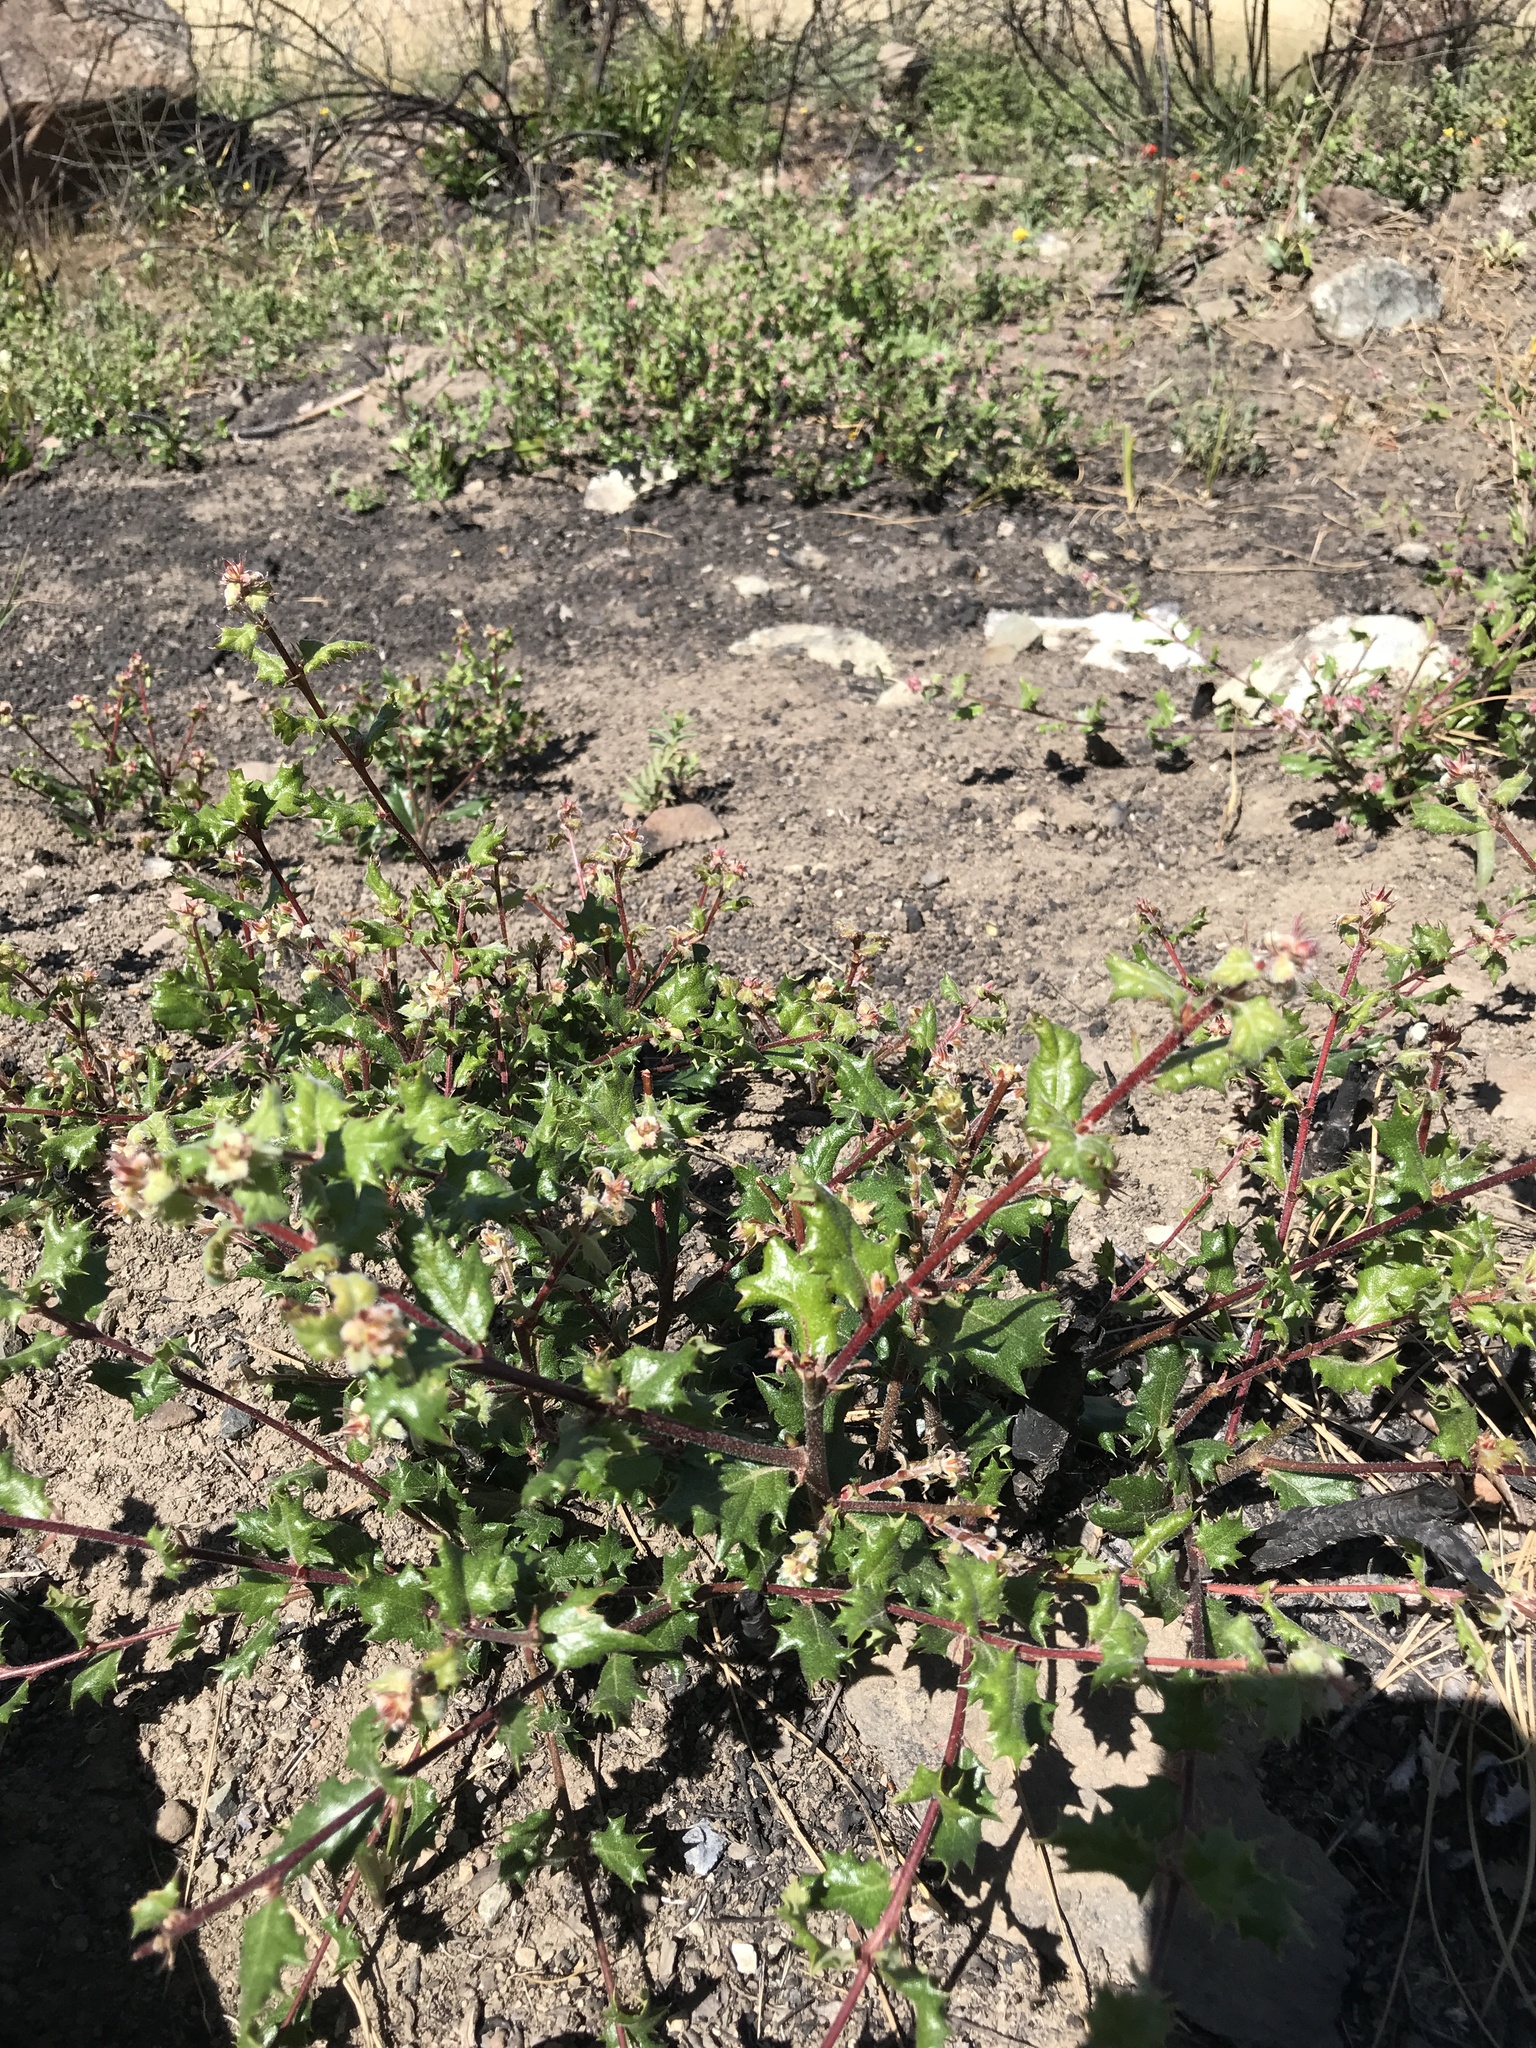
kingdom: Plantae
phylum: Tracheophyta
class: Magnoliopsida
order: Fagales
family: Fagaceae
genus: Quercus
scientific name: Quercus durata
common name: Leather oak
